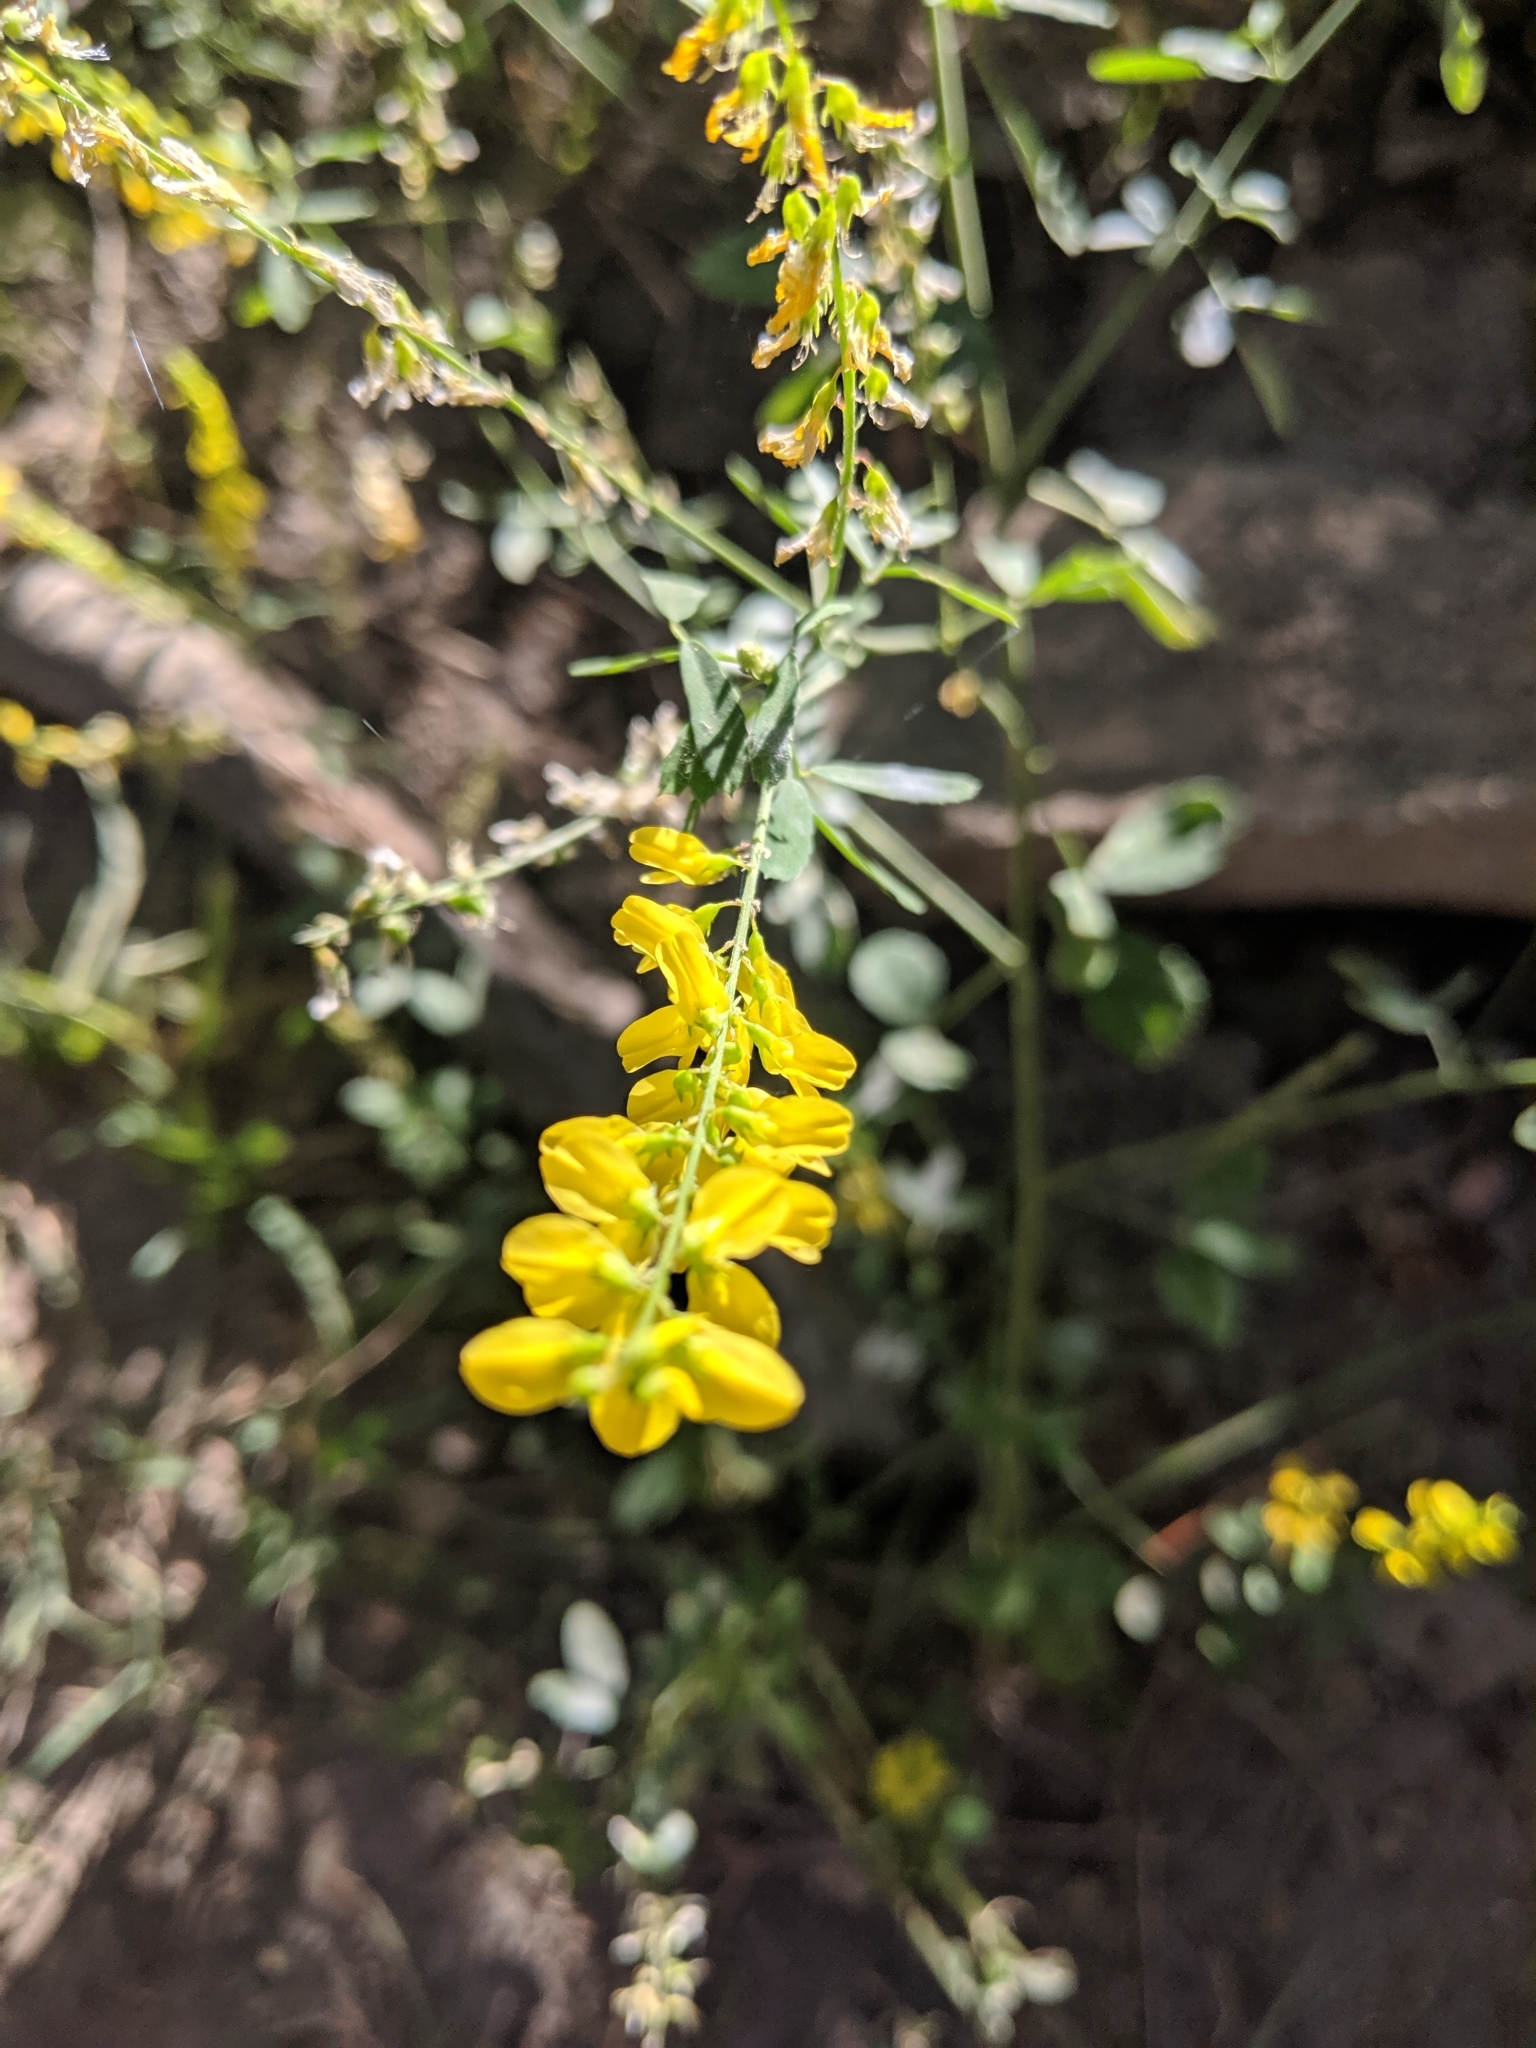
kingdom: Plantae
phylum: Tracheophyta
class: Magnoliopsida
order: Fabales
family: Fabaceae
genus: Melilotus
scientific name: Melilotus officinalis
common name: Sweetclover
